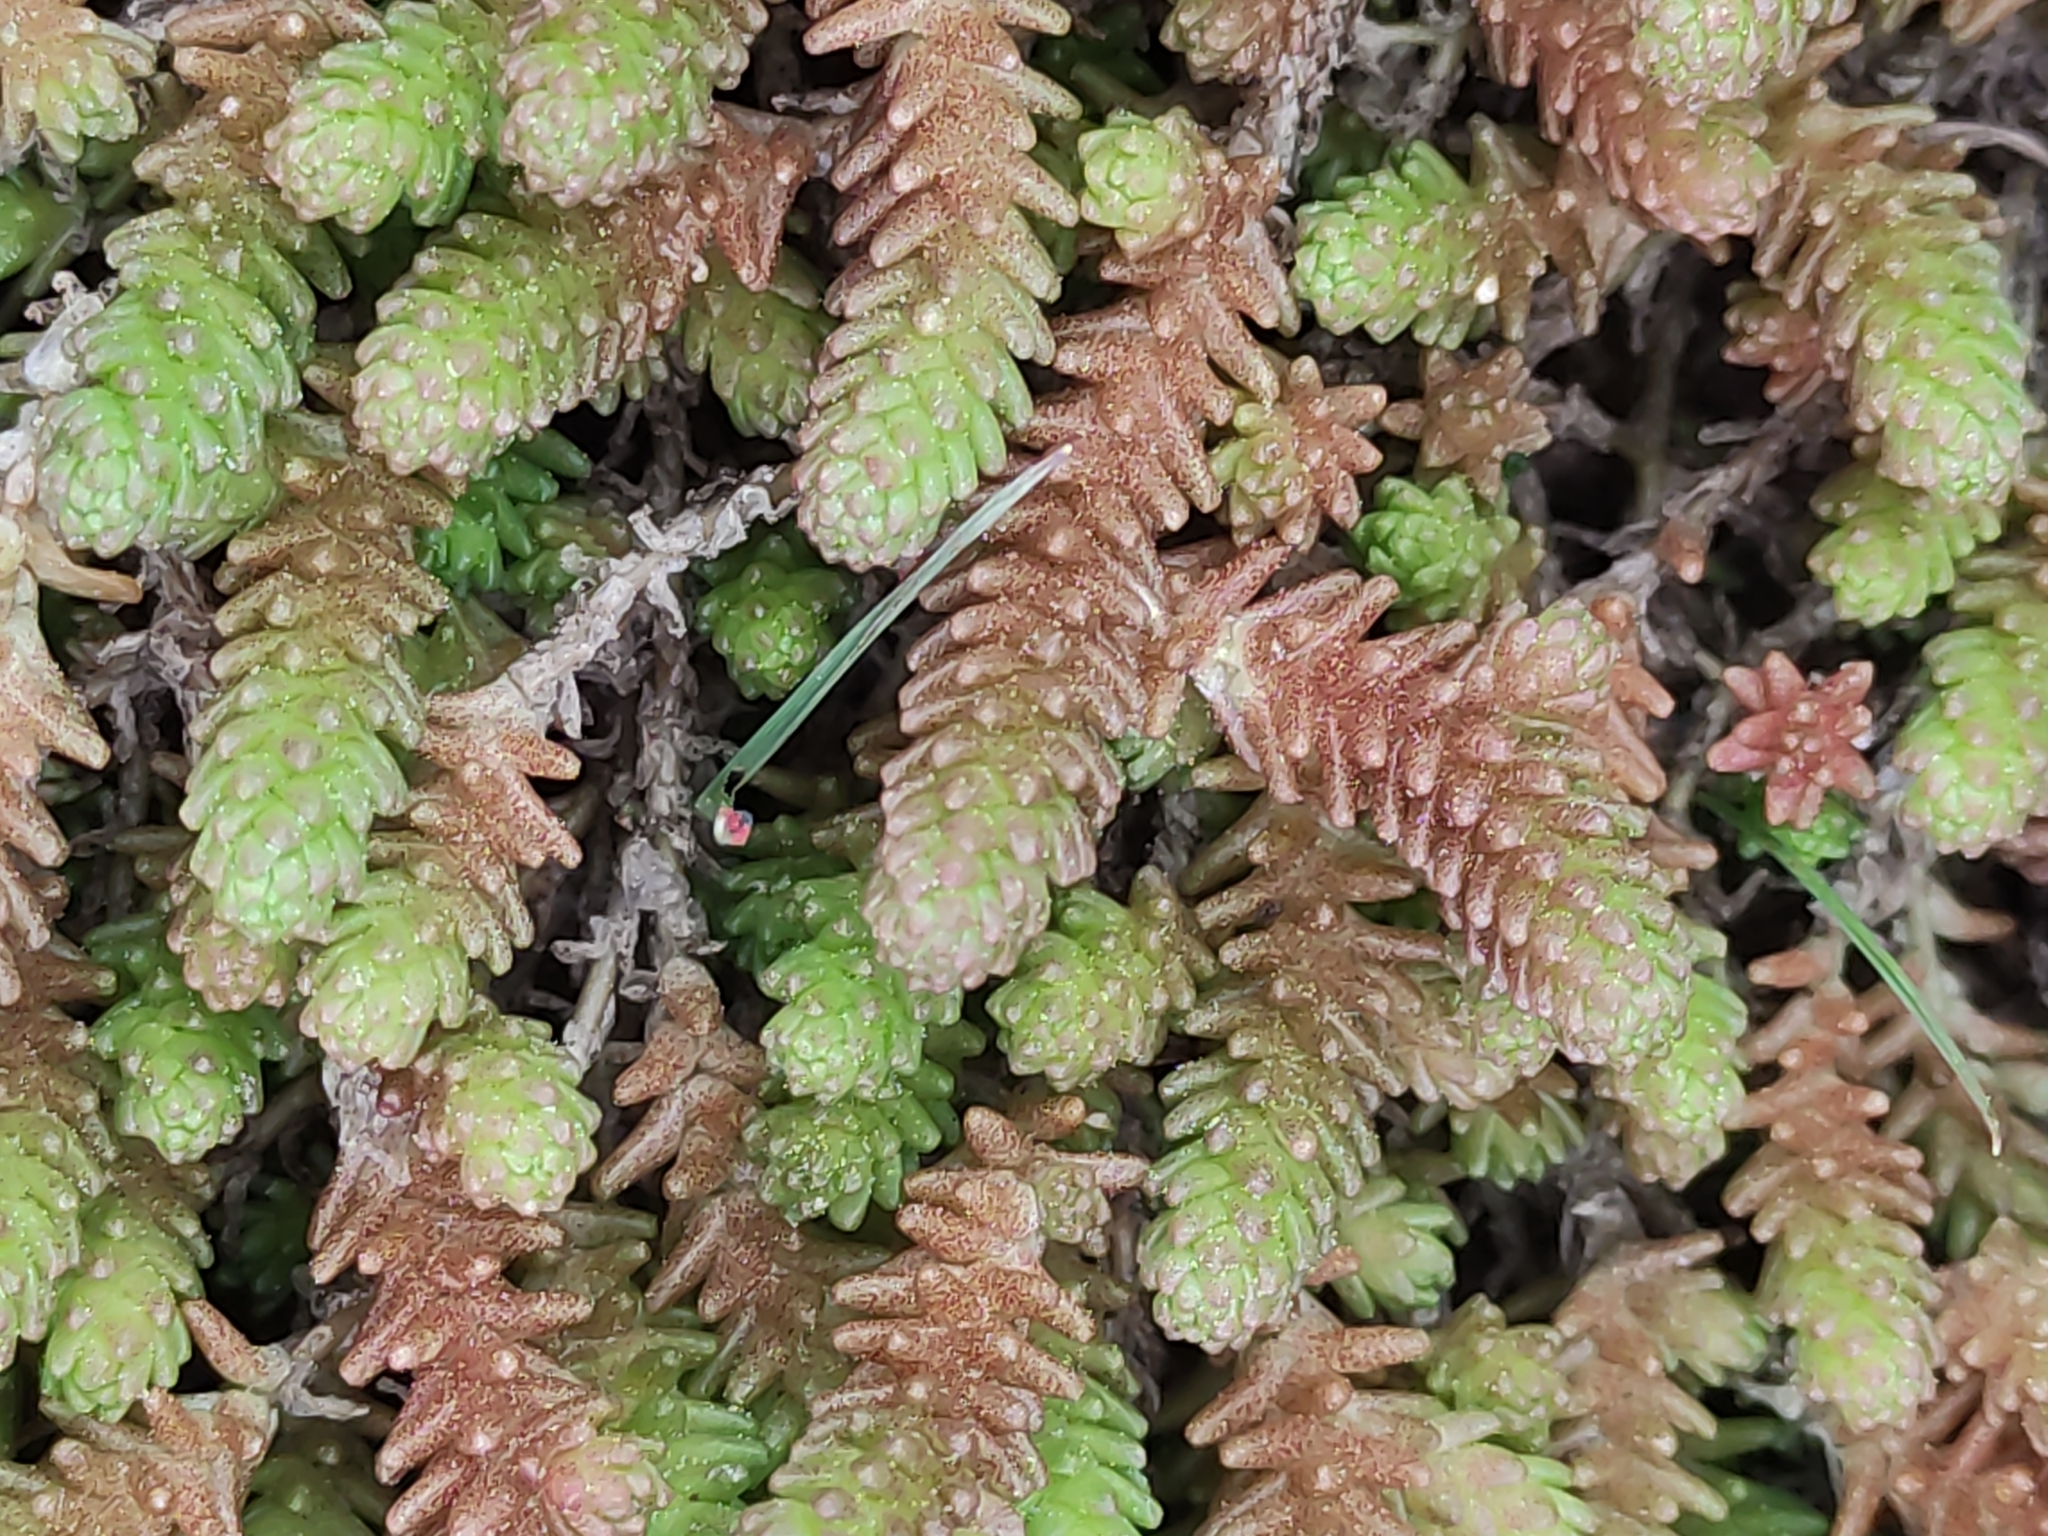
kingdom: Plantae
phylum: Tracheophyta
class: Magnoliopsida
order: Saxifragales
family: Crassulaceae
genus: Sedum
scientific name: Sedum acre
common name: Biting stonecrop
